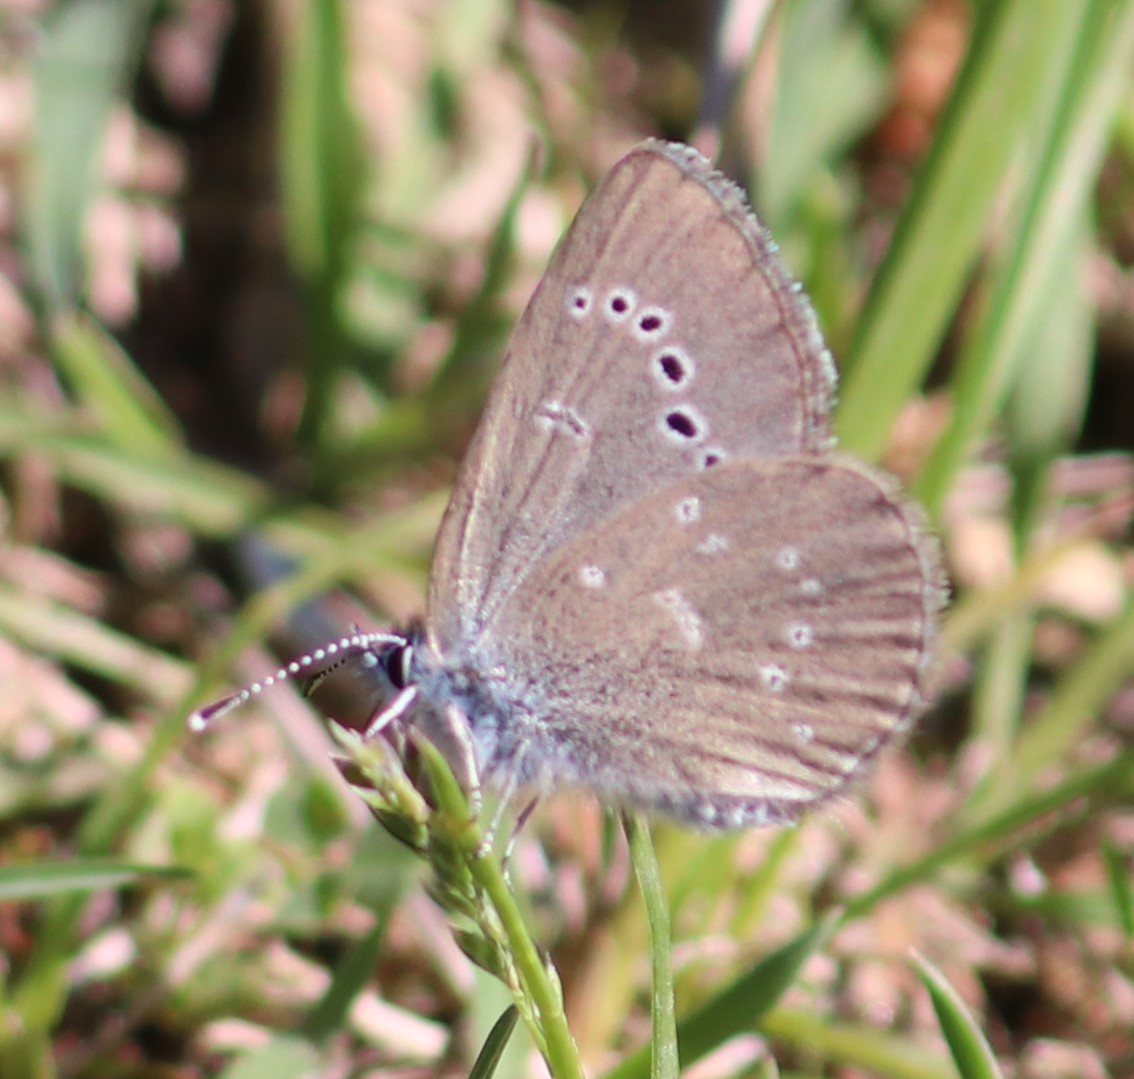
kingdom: Animalia
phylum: Arthropoda
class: Insecta
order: Lepidoptera
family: Lycaenidae
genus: Glaucopsyche
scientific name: Glaucopsyche lygdamus
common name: Silvery blue
